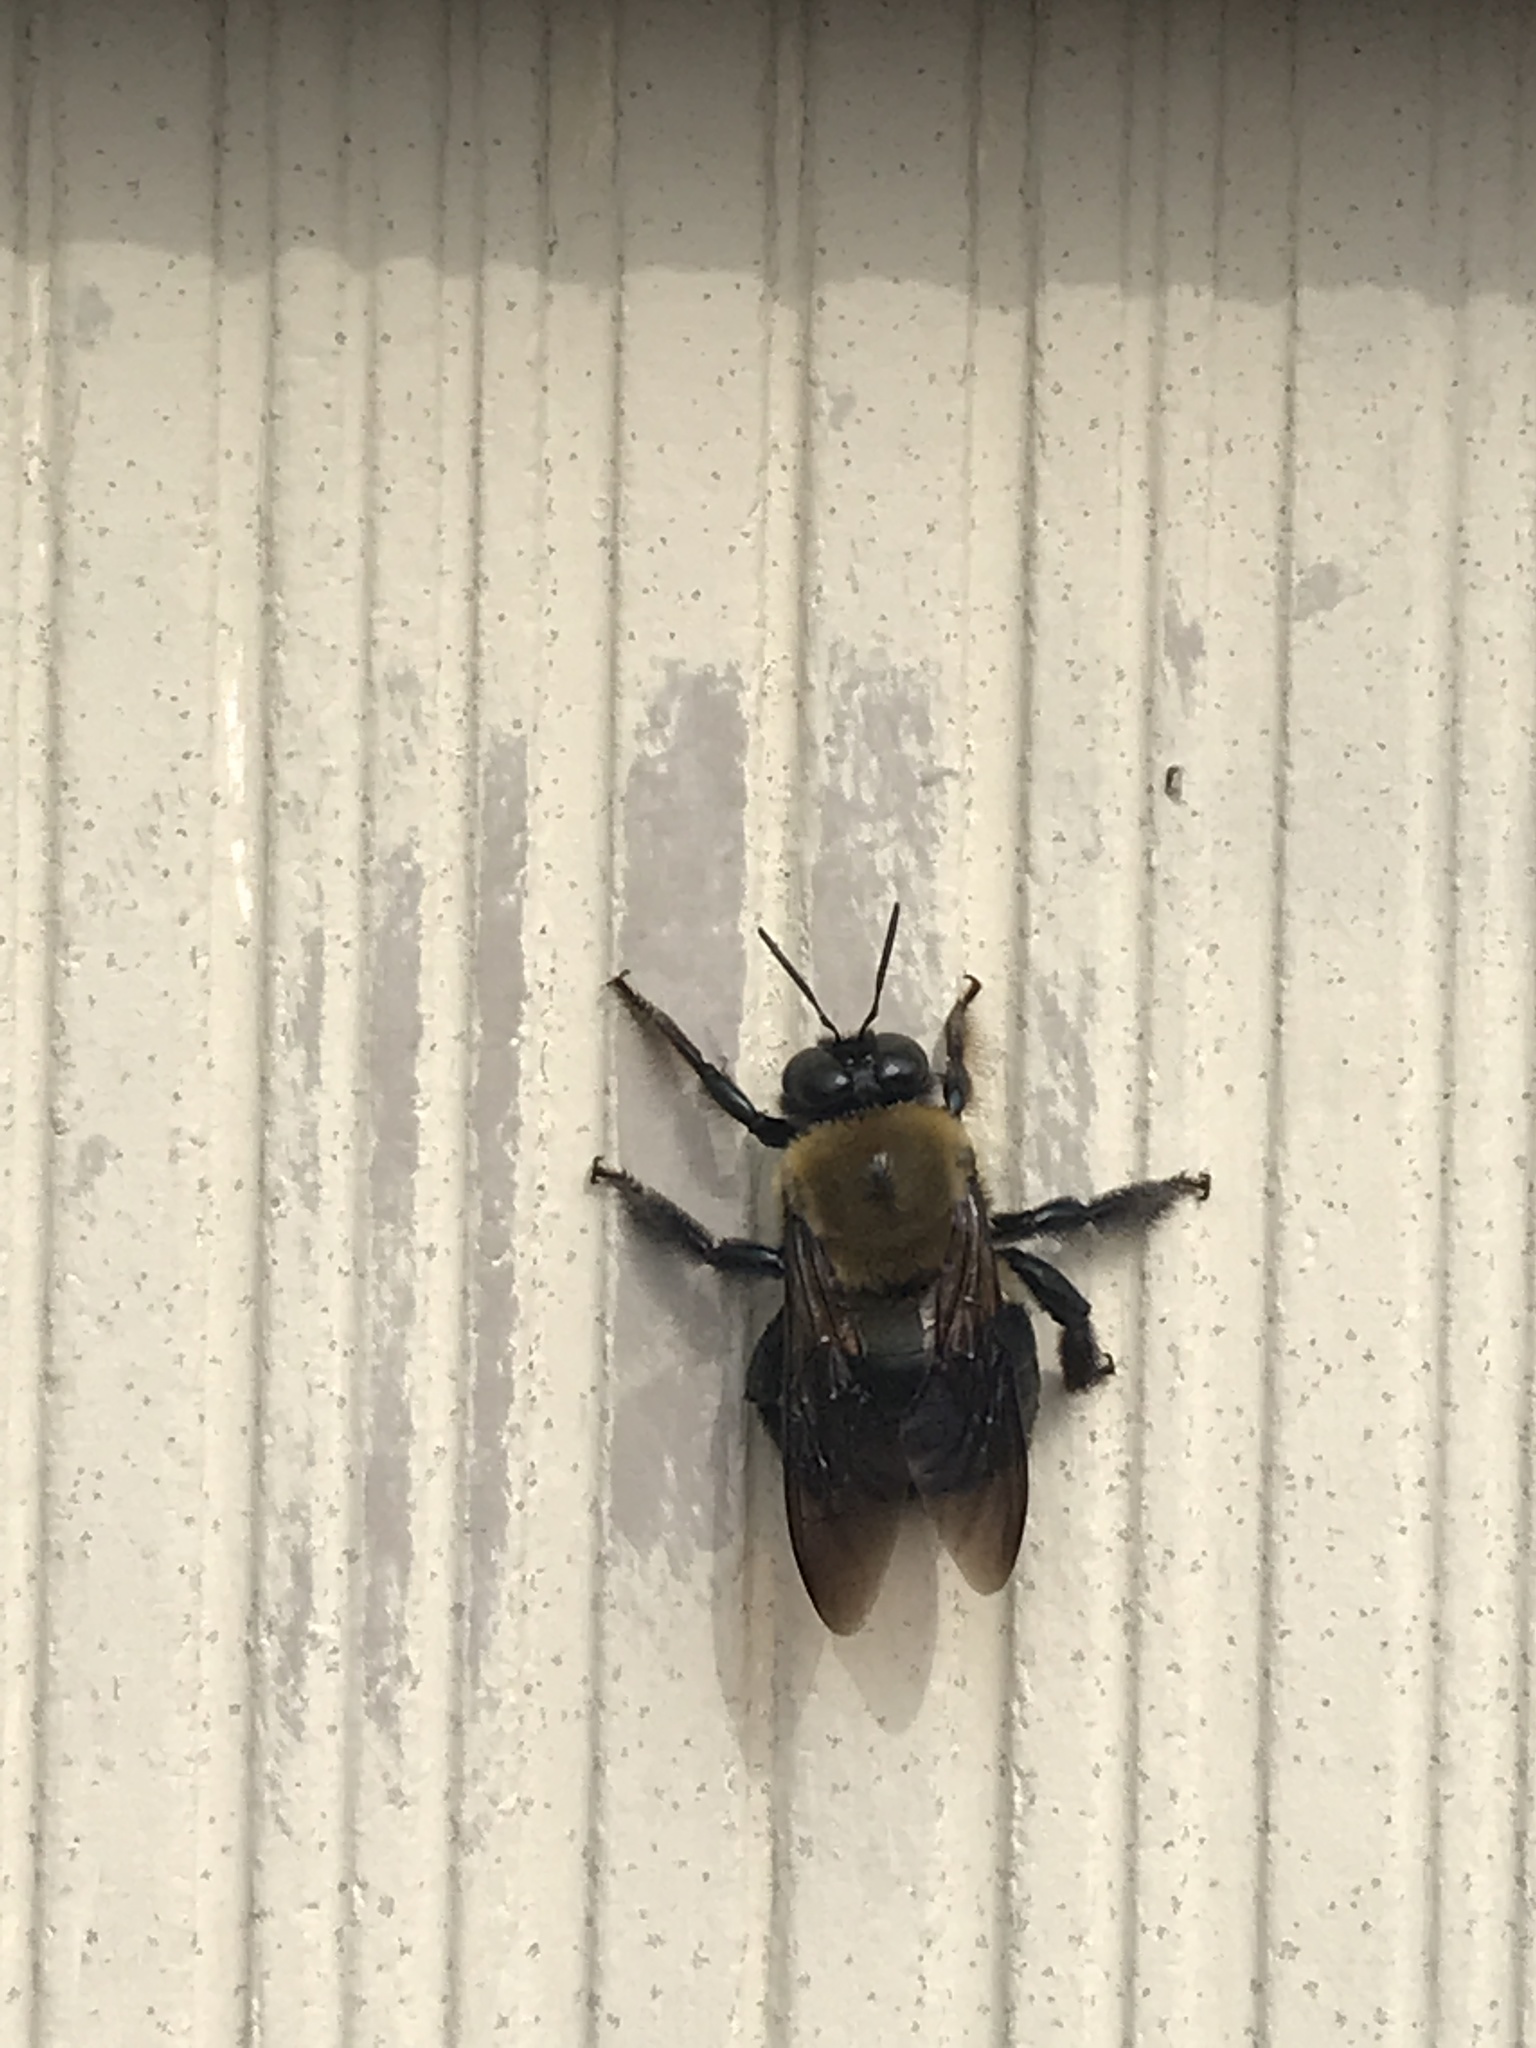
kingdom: Animalia
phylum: Arthropoda
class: Insecta
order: Hymenoptera
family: Apidae
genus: Xylocopa
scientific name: Xylocopa virginica
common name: Carpenter bee
